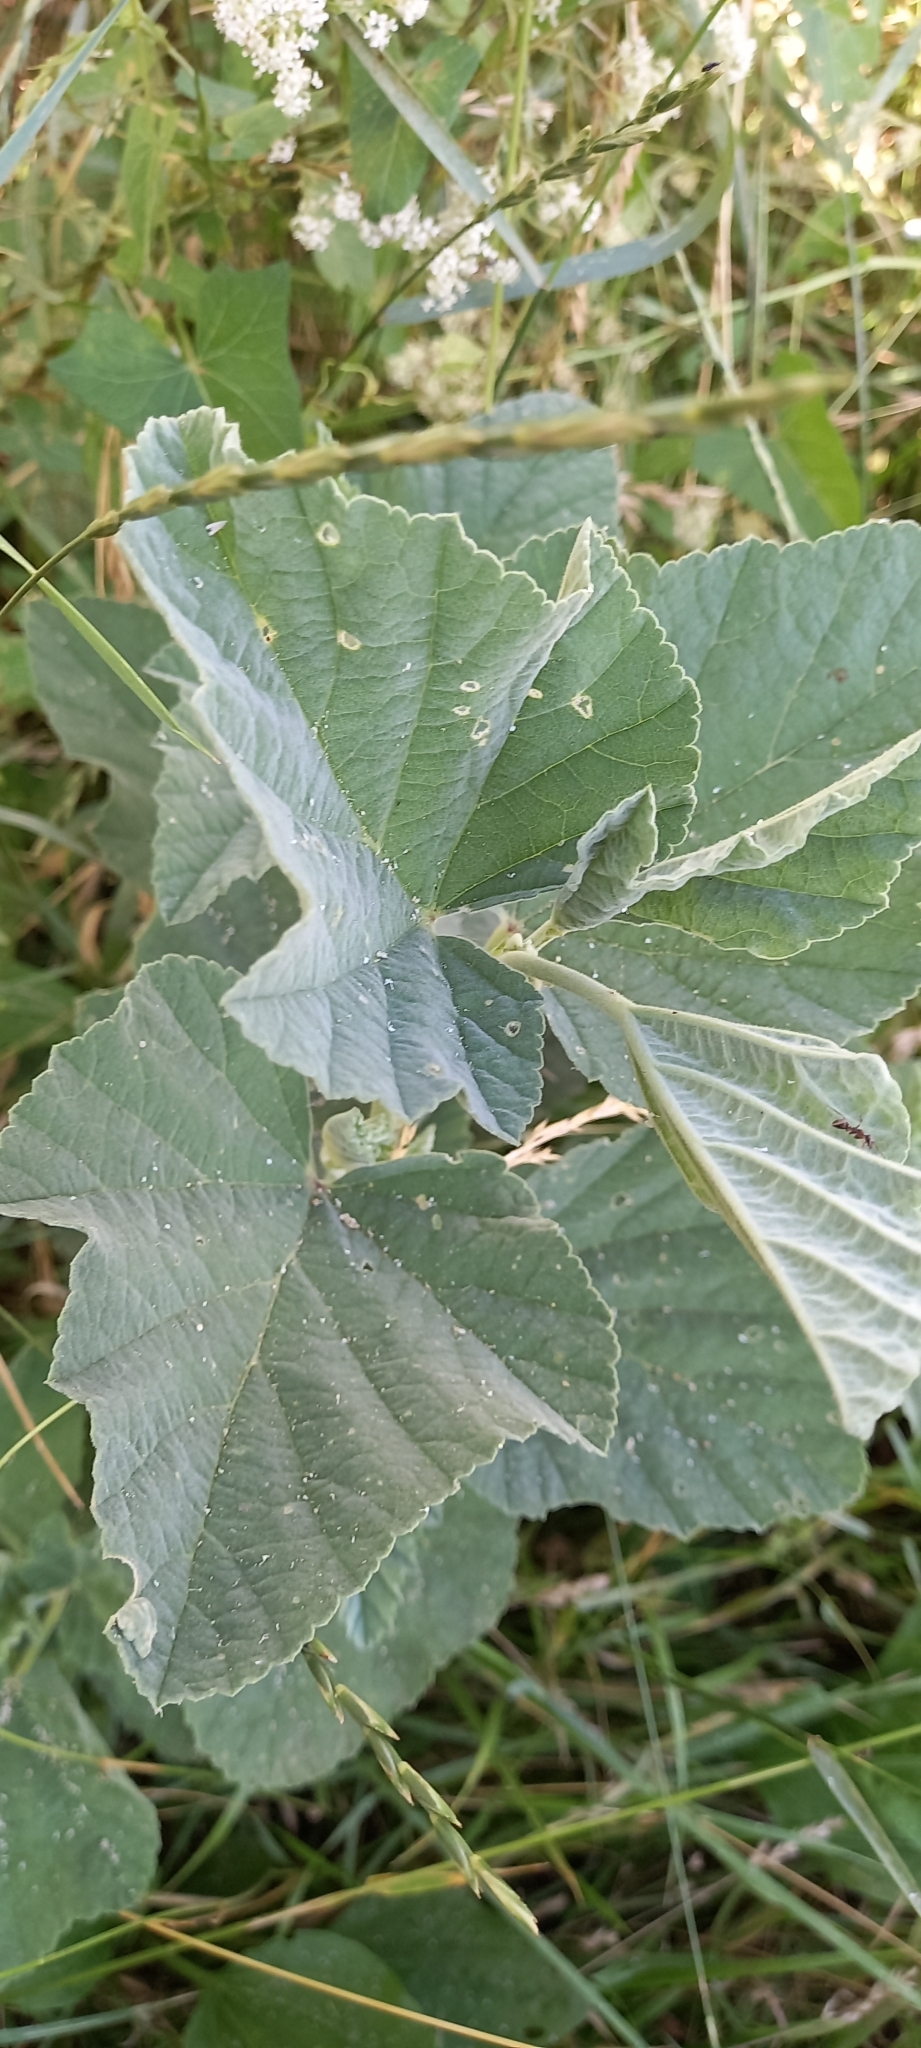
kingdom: Plantae
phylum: Tracheophyta
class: Magnoliopsida
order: Malvales
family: Malvaceae
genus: Althaea
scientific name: Althaea officinalis
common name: Marsh-mallow
